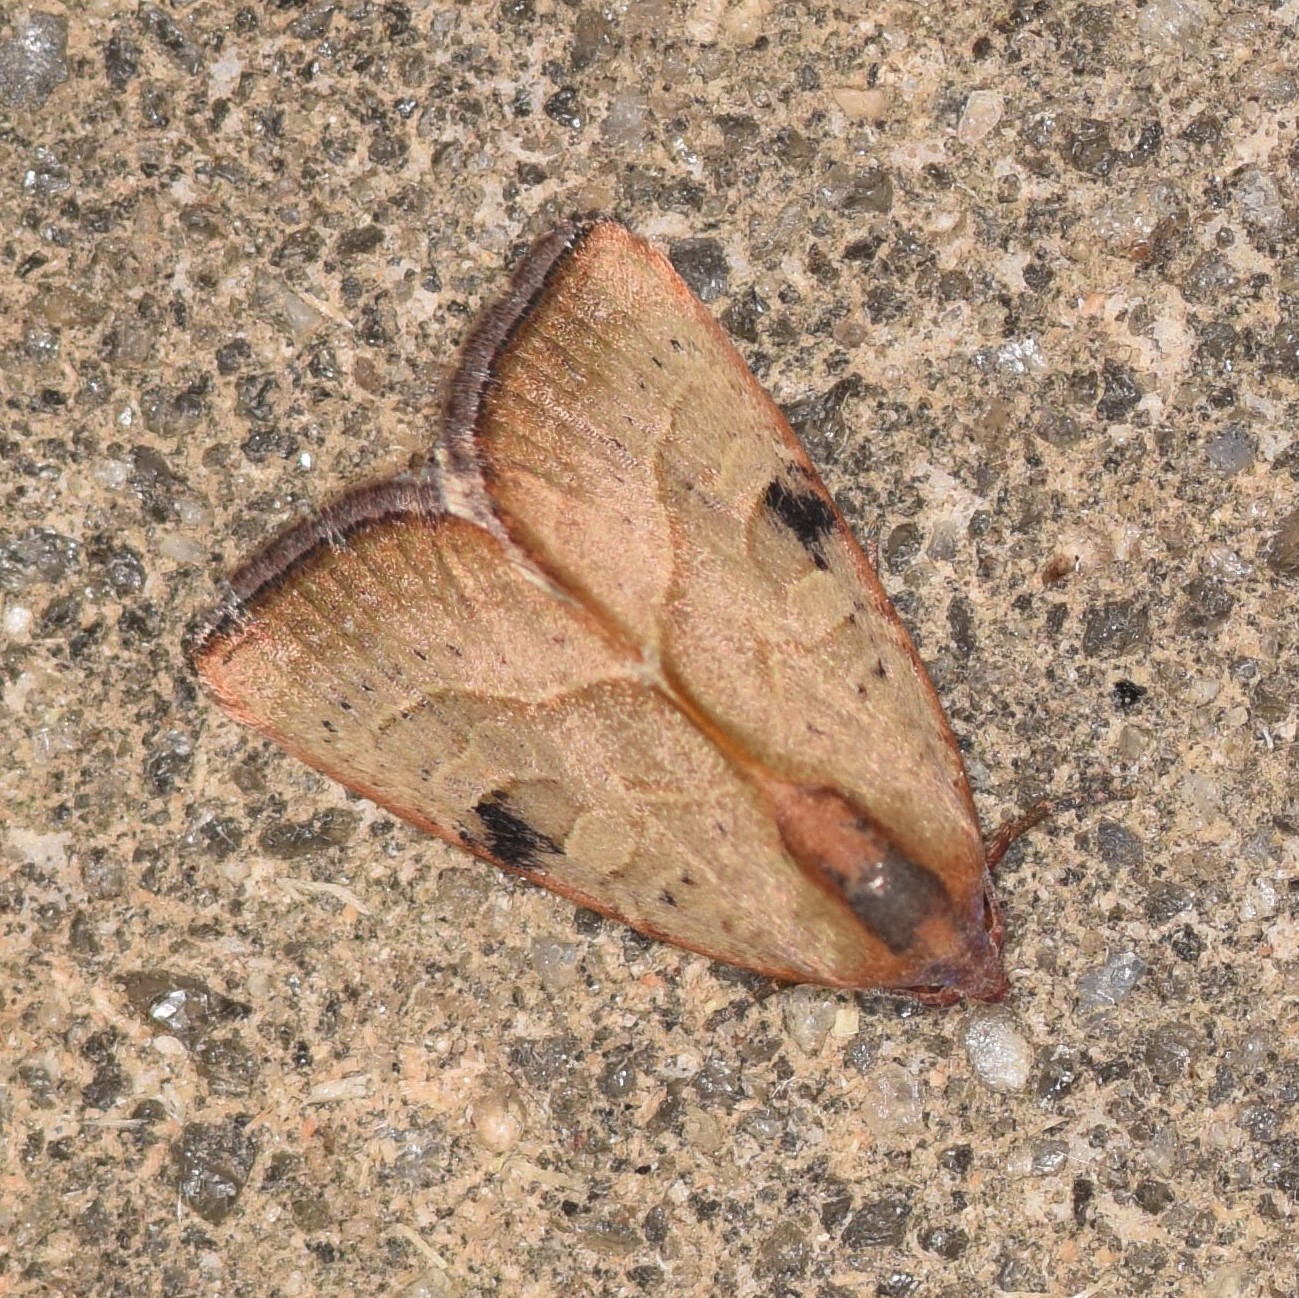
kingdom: Animalia
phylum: Arthropoda
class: Insecta
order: Lepidoptera
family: Noctuidae
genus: Galgula
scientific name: Galgula partita
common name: Wedgeling
